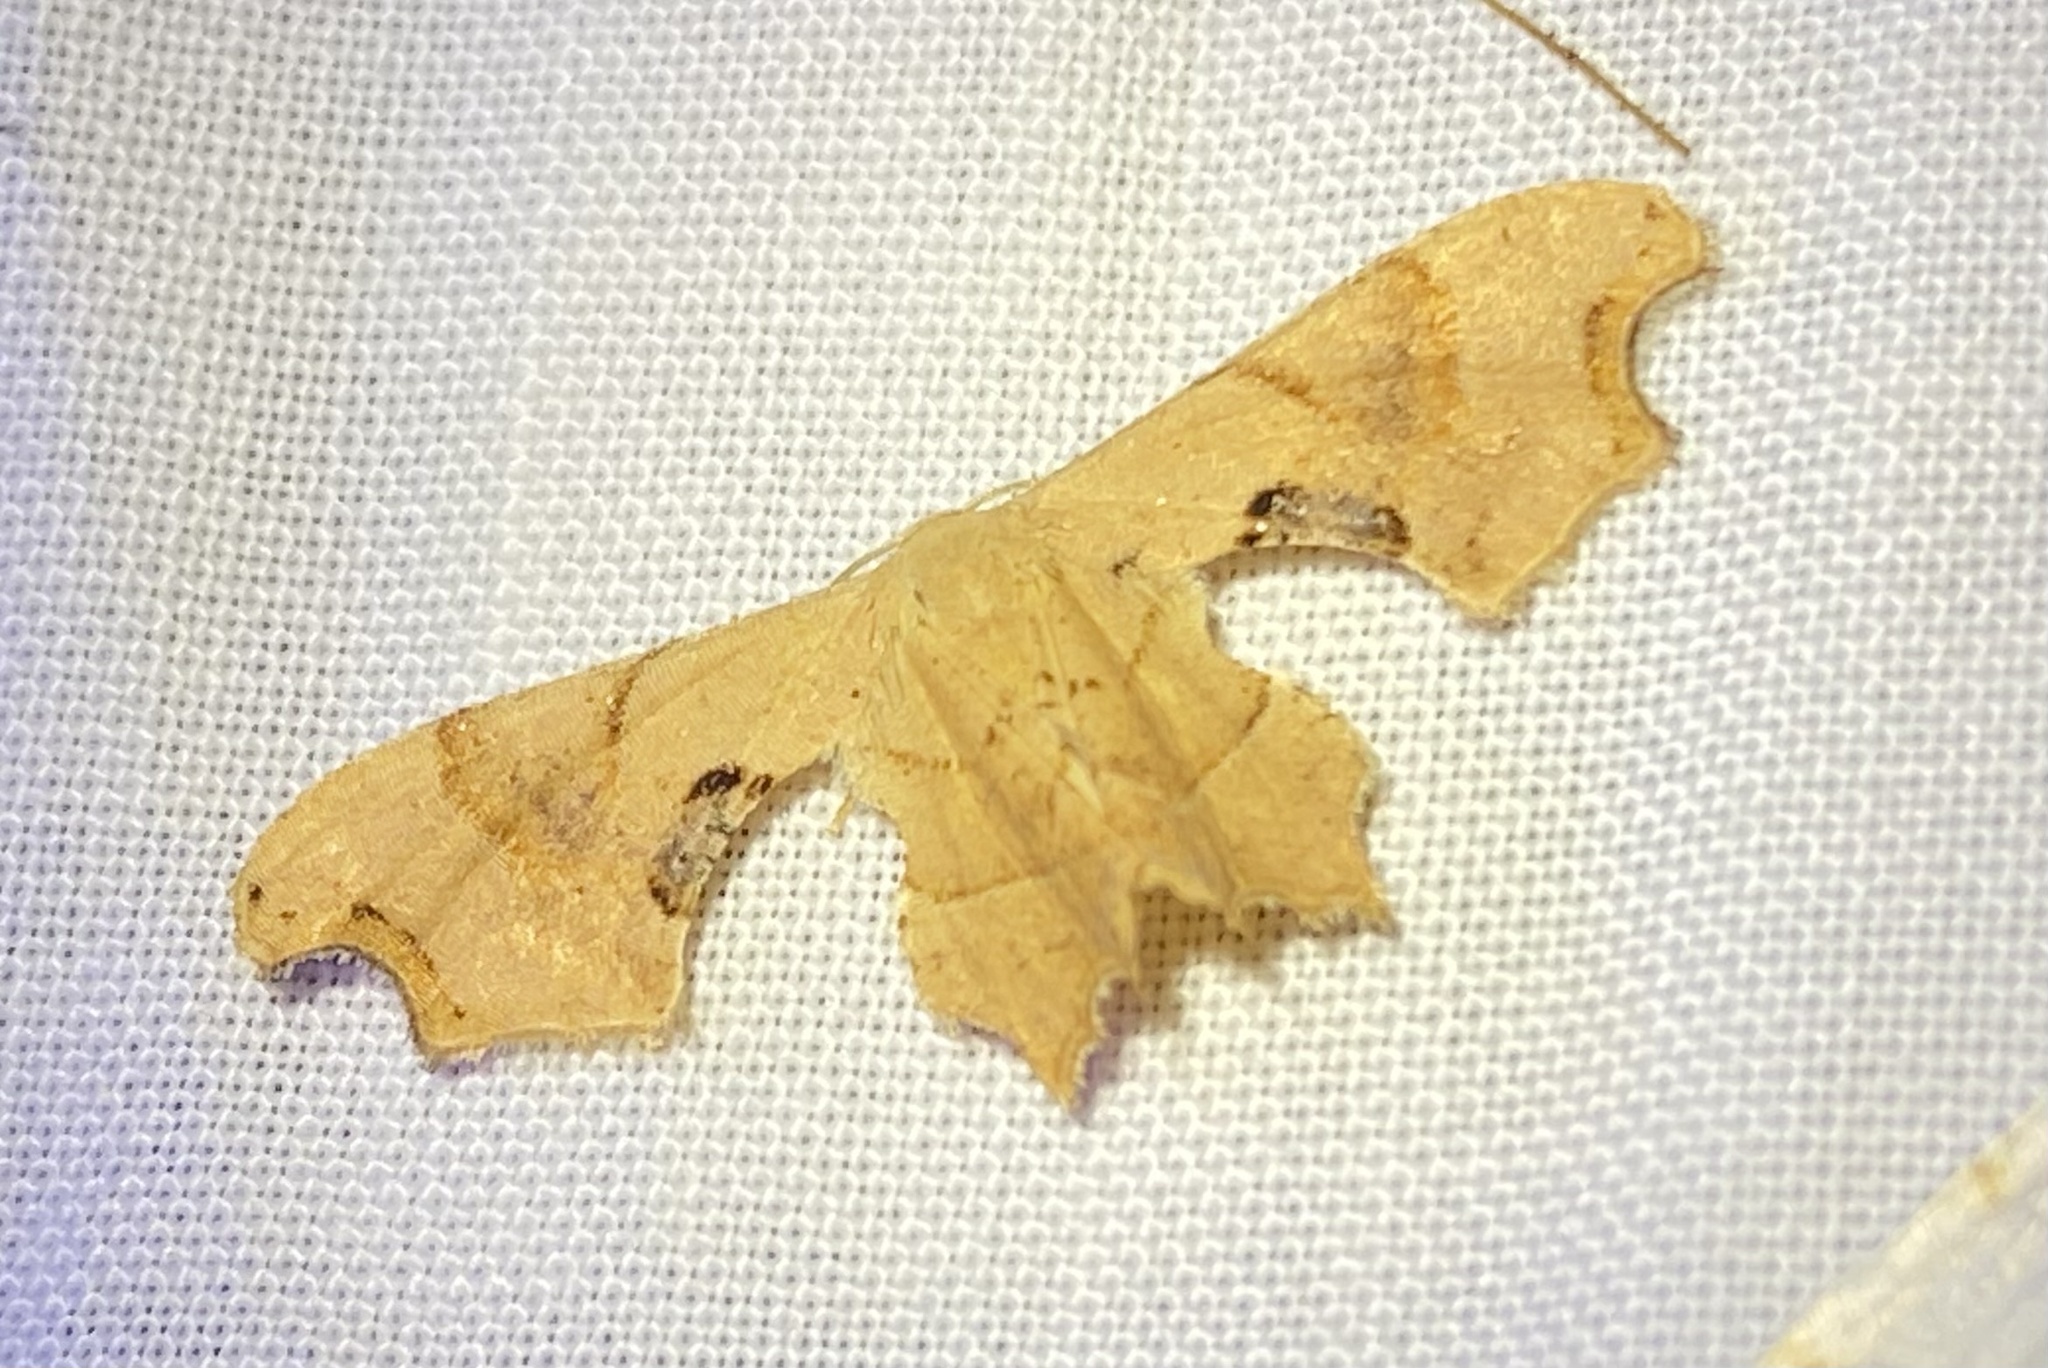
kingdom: Animalia
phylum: Arthropoda
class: Insecta
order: Lepidoptera
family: Uraniidae
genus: Epiplema
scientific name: Epiplema Calledapteryx dryopterata
